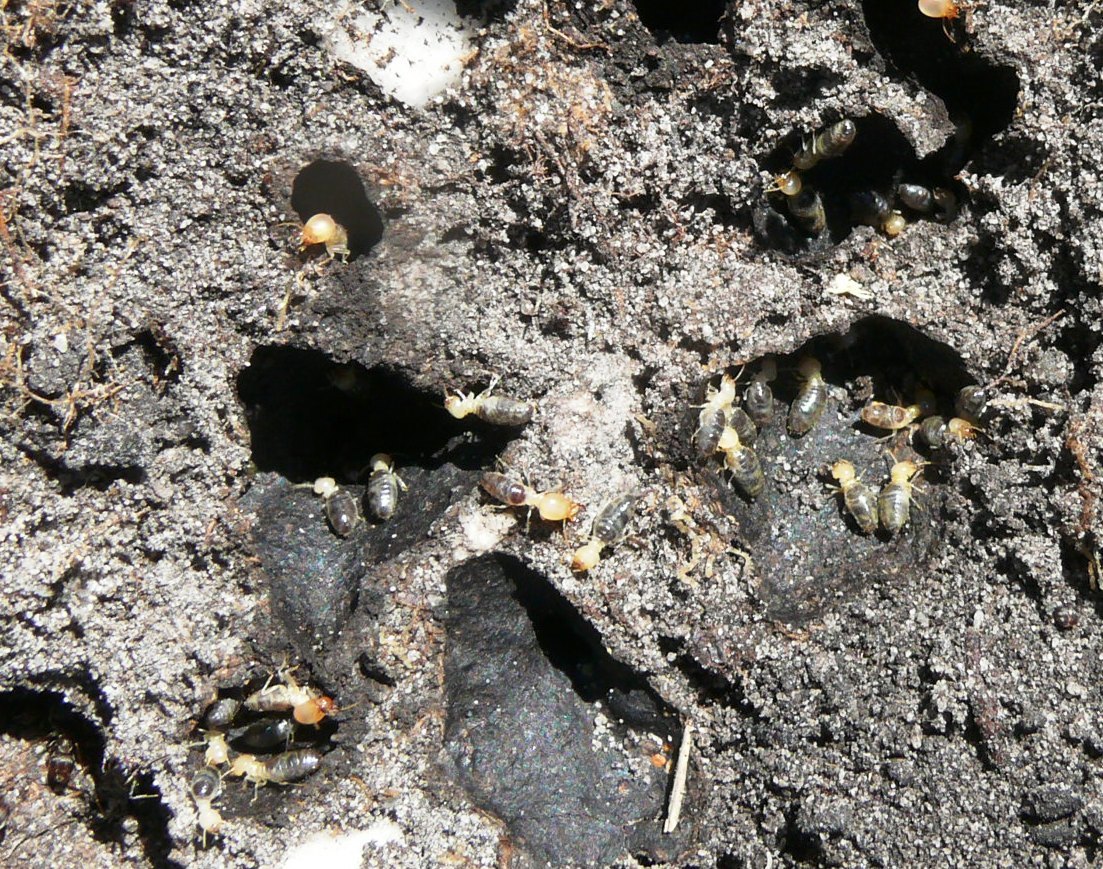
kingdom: Animalia
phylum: Arthropoda
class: Insecta
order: Blattodea
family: Termitidae
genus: Amitermes
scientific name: Amitermes hastatus
